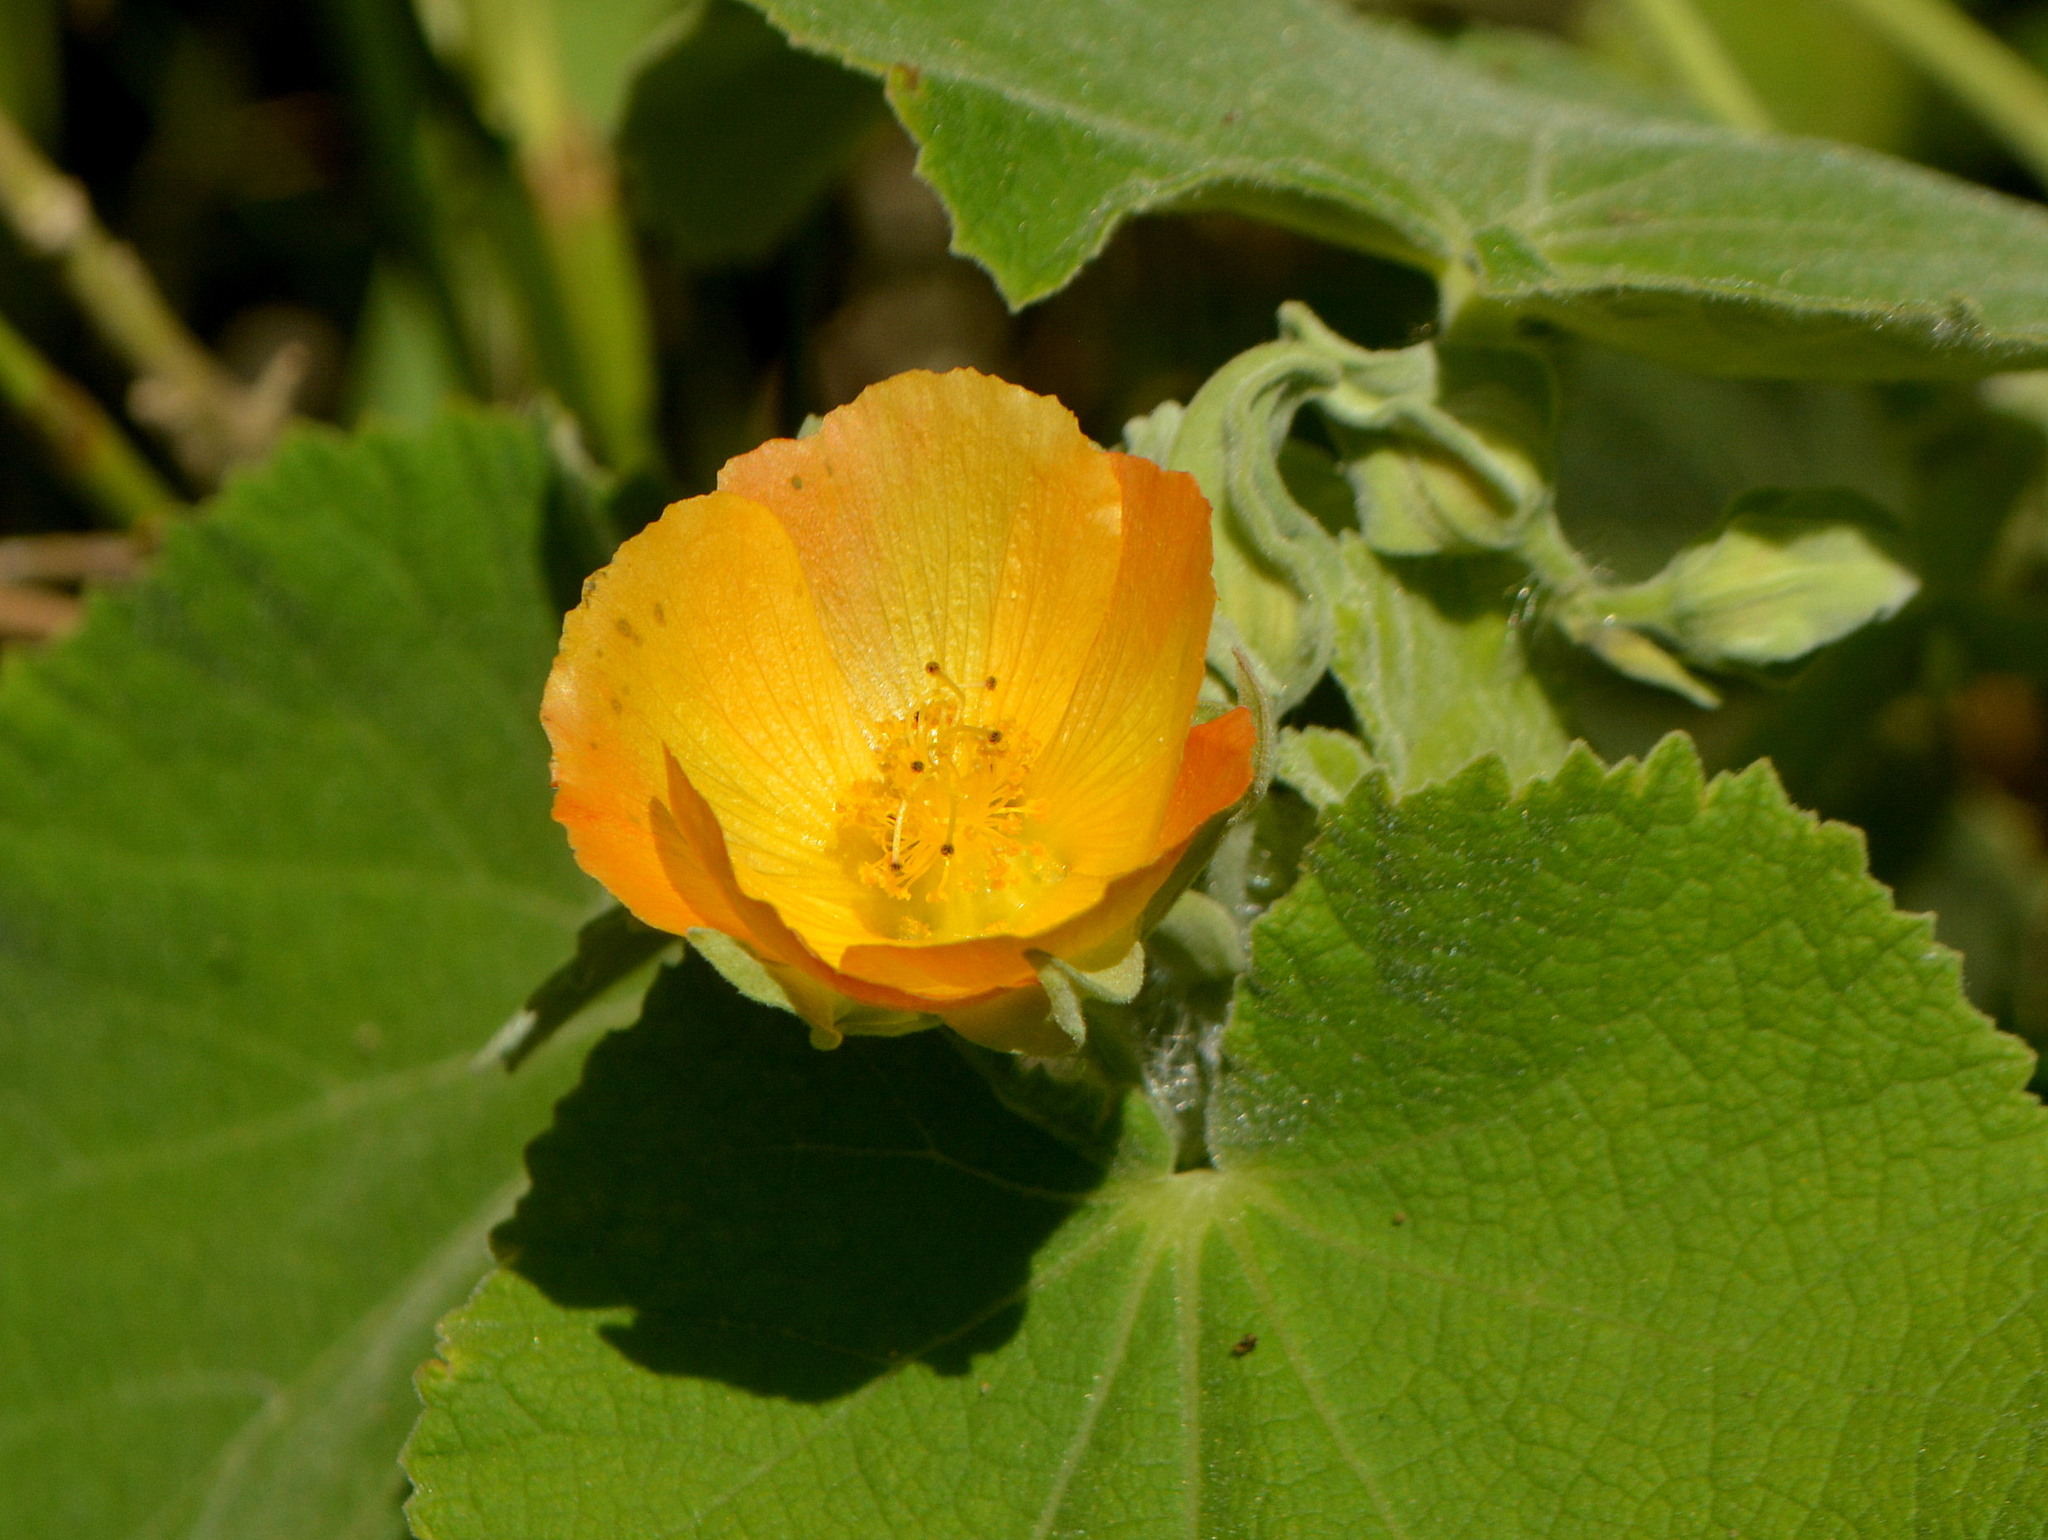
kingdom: Plantae
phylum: Tracheophyta
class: Magnoliopsida
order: Malvales
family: Malvaceae
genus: Abutilon
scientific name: Abutilon grandifolium
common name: Hairy abutilon
